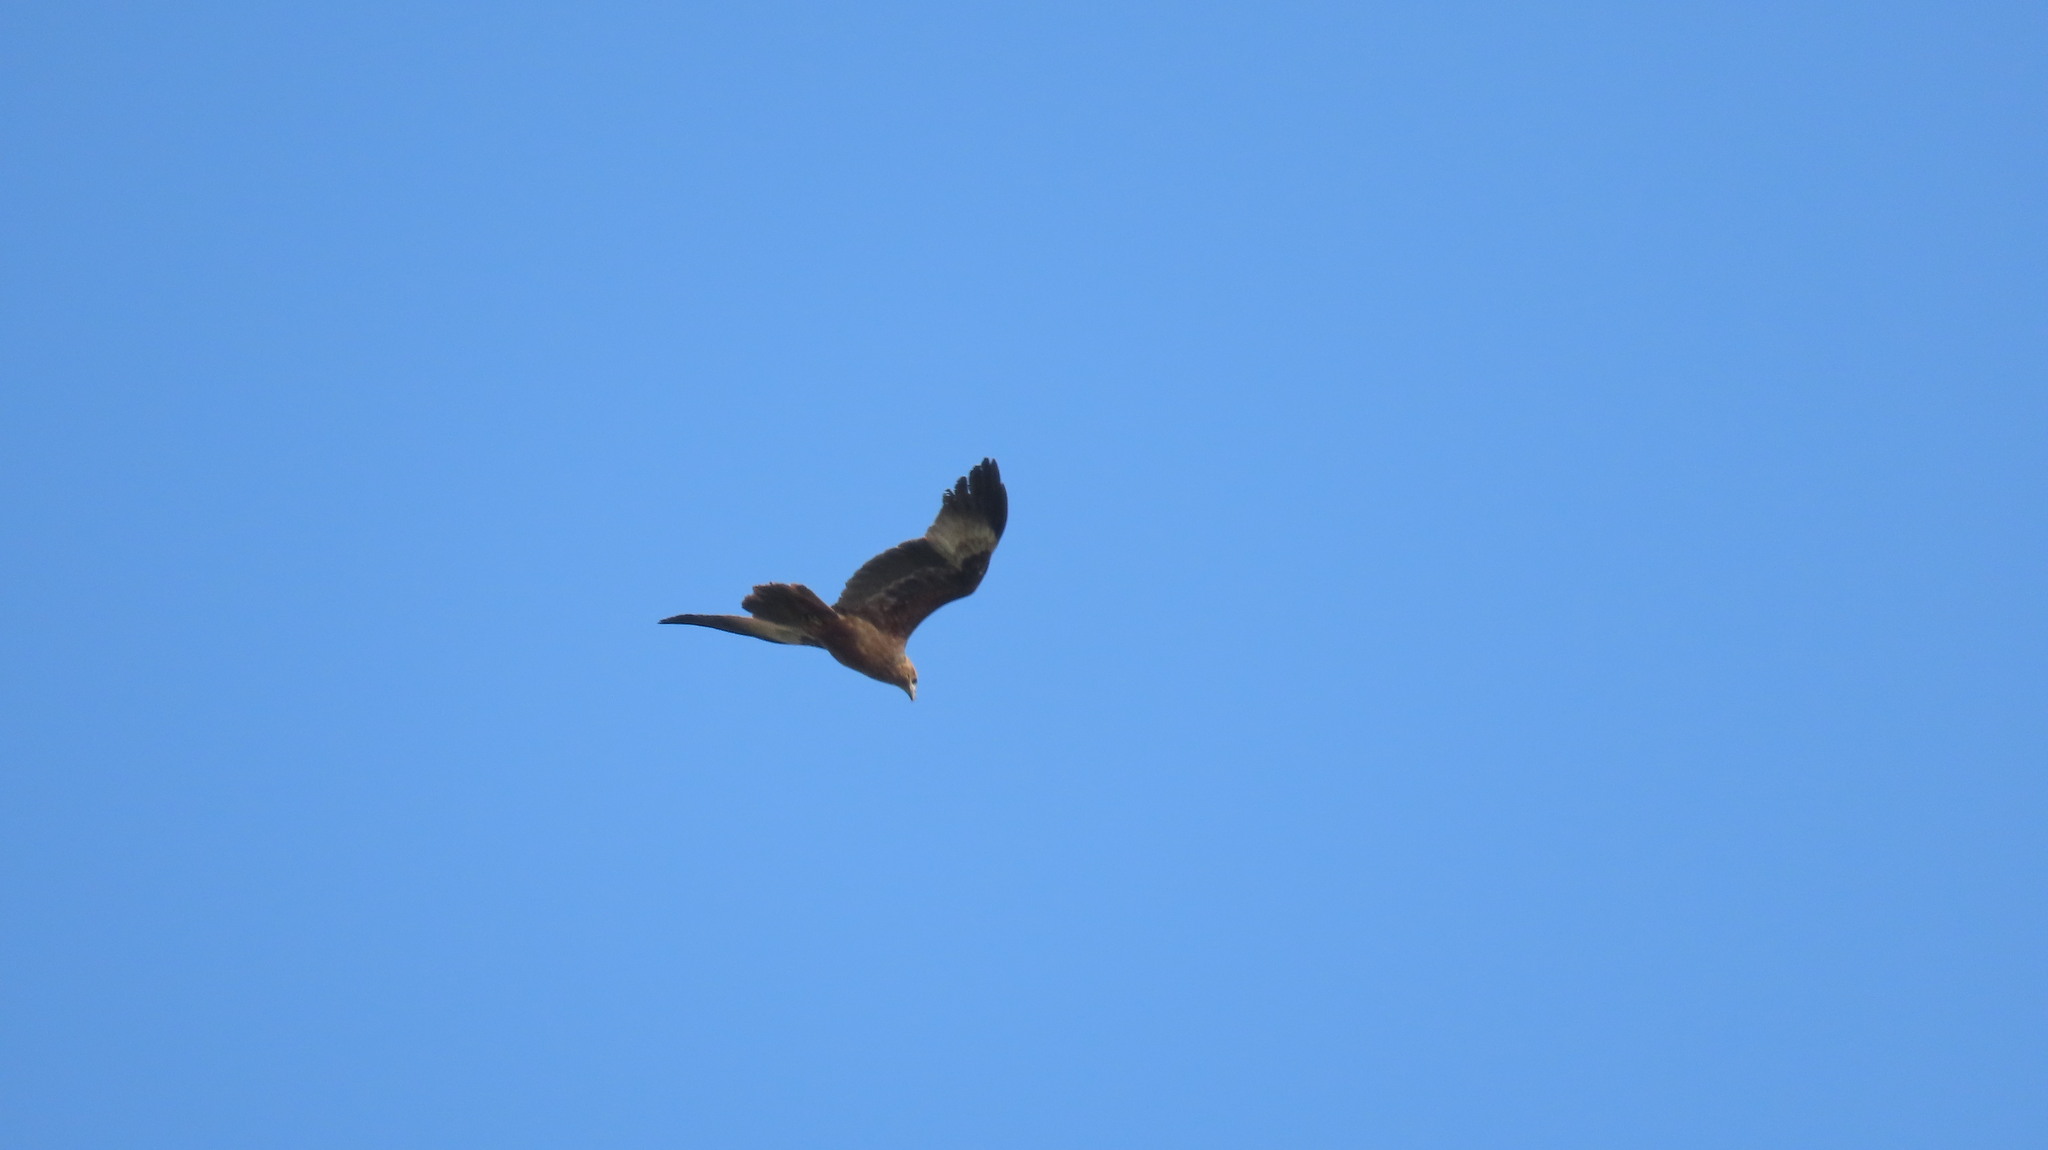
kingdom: Animalia
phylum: Chordata
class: Aves
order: Accipitriformes
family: Accipitridae
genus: Haliastur
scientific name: Haliastur indus
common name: Brahminy kite
